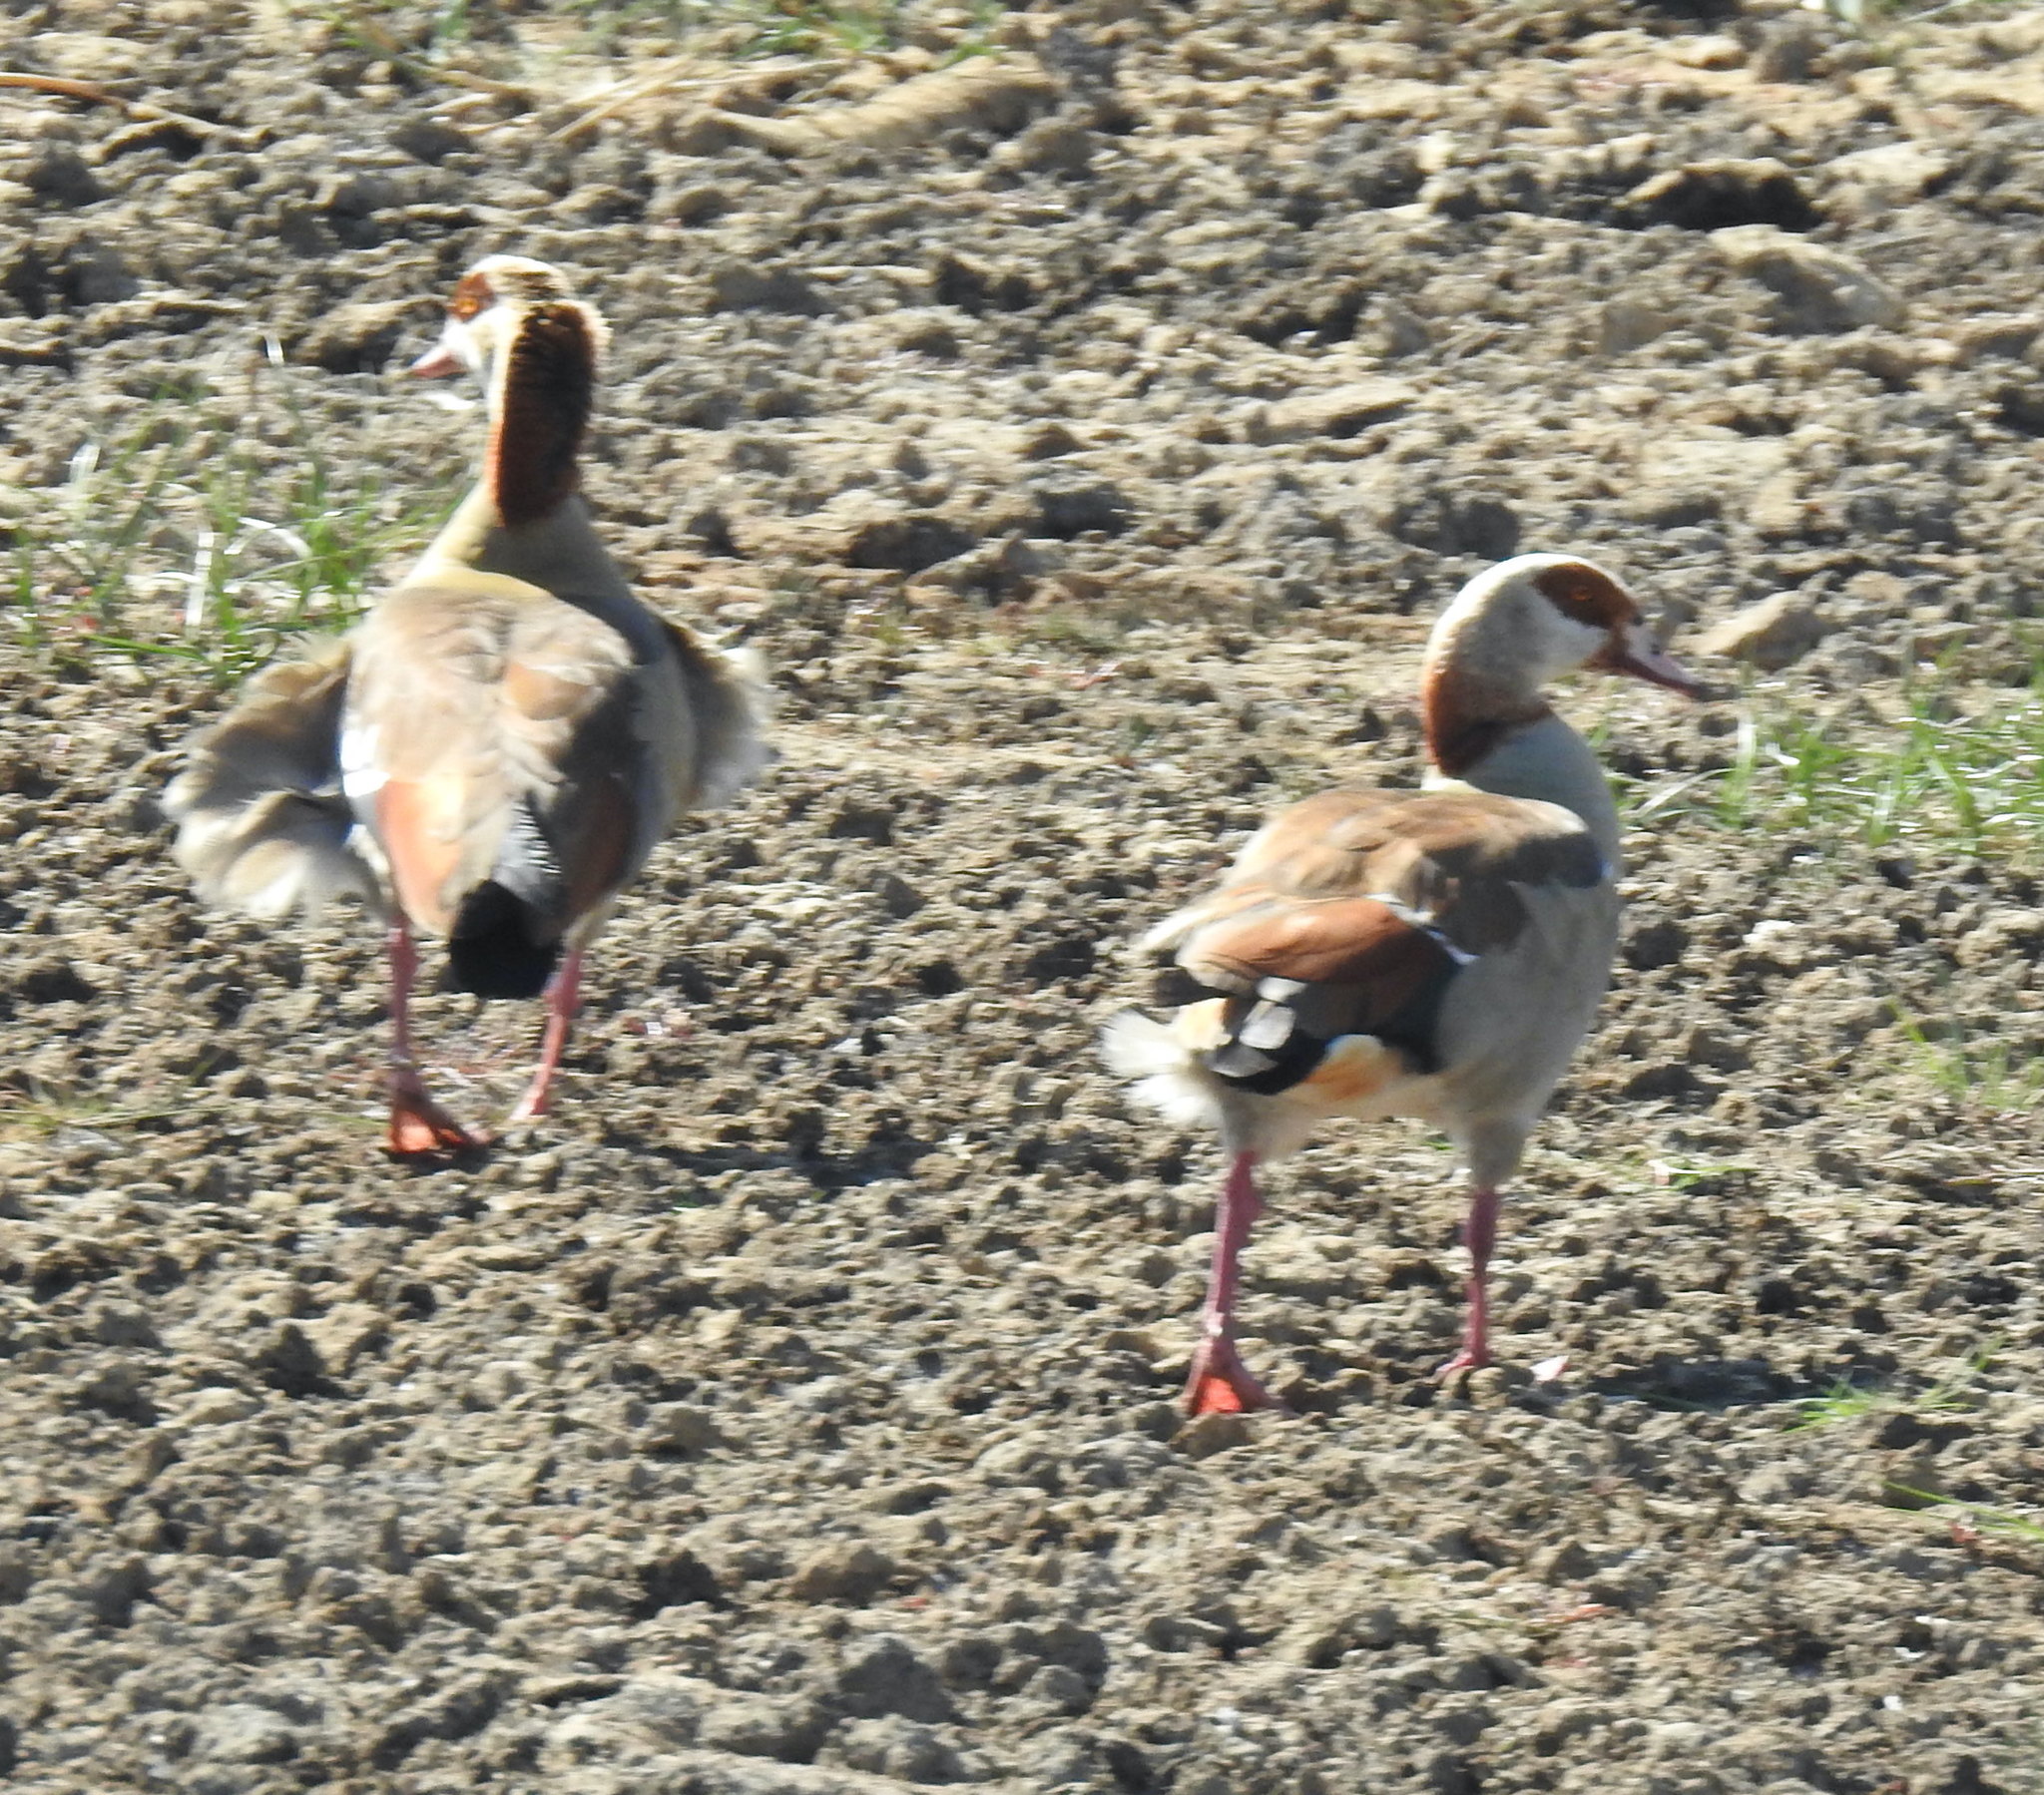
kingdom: Animalia
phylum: Chordata
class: Aves
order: Anseriformes
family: Anatidae
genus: Alopochen
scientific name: Alopochen aegyptiaca
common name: Egyptian goose
